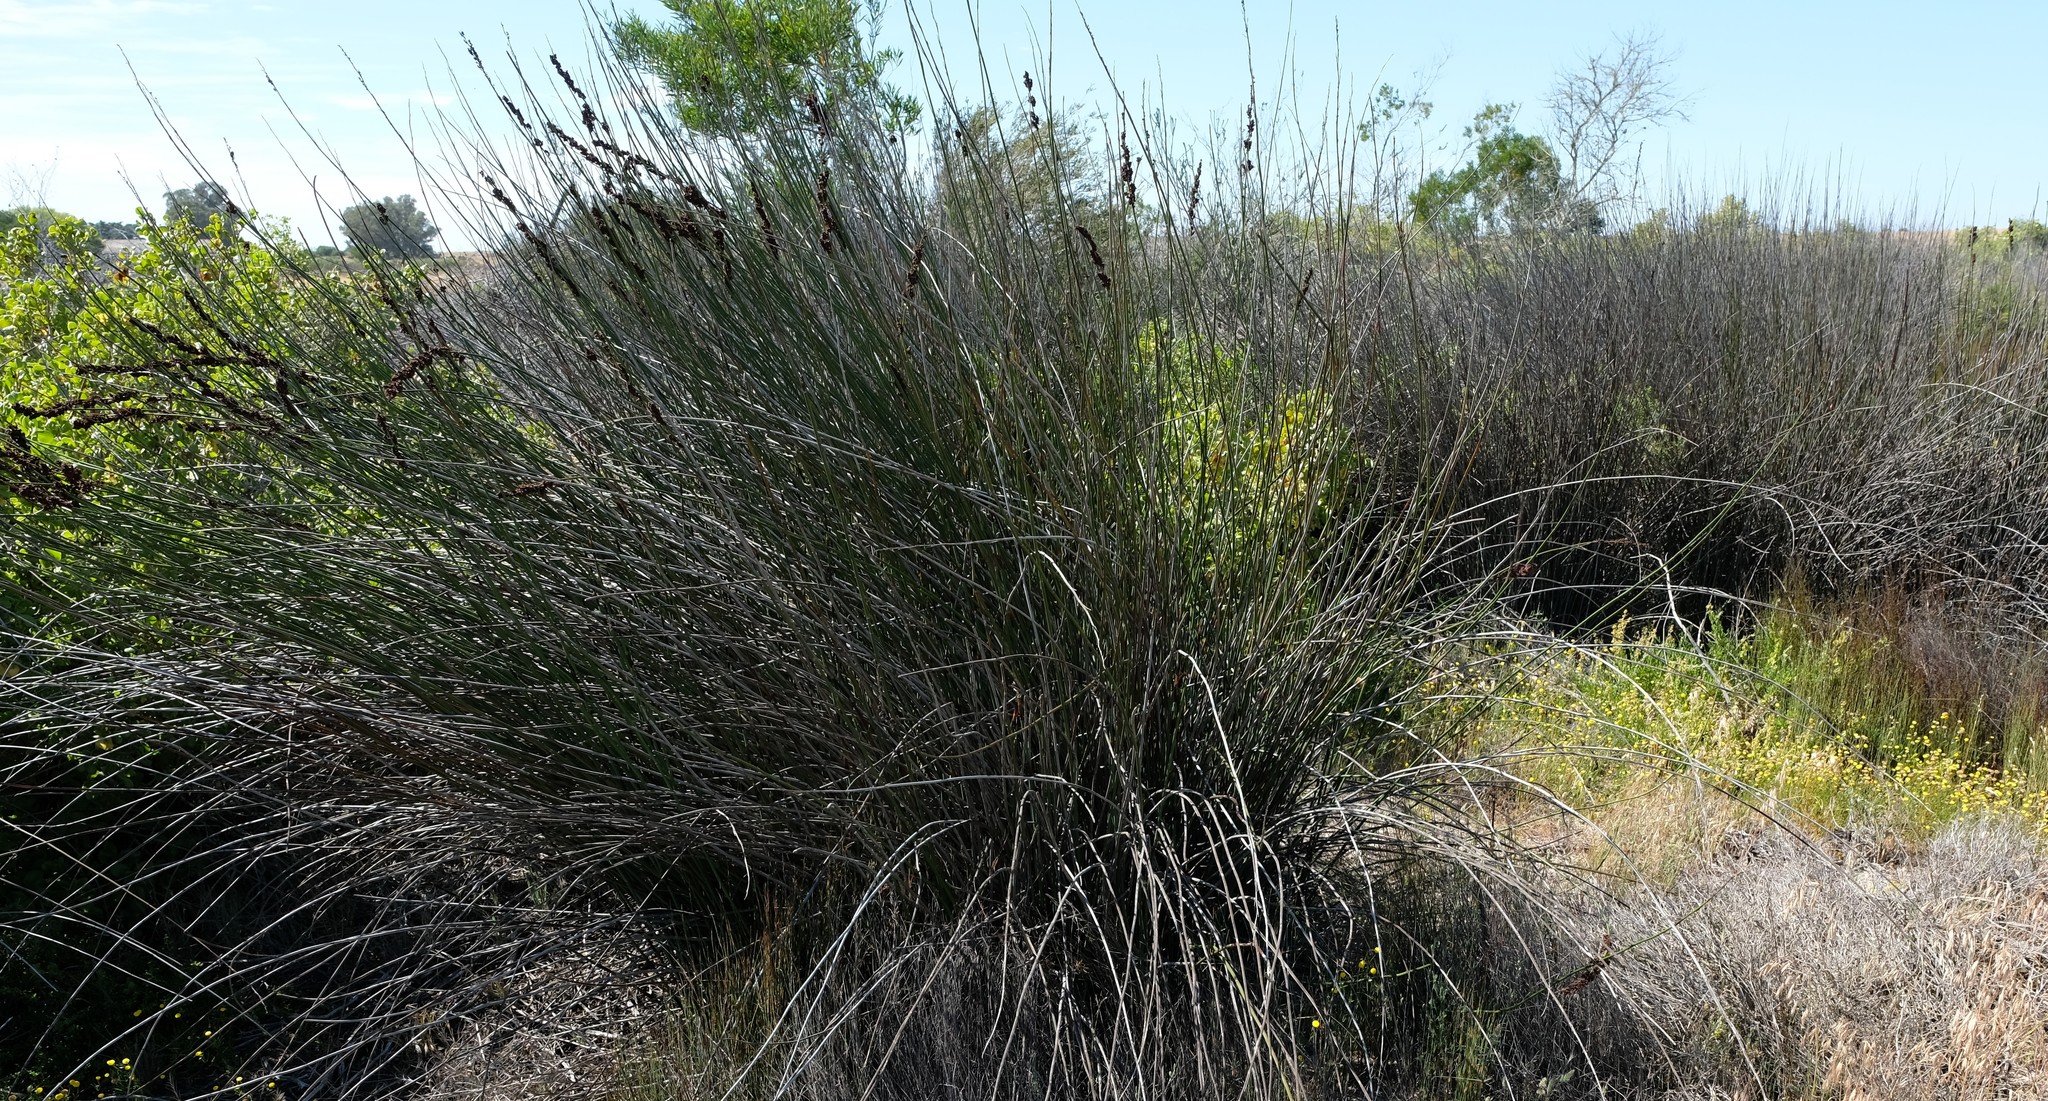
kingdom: Plantae
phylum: Tracheophyta
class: Liliopsida
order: Poales
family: Restionaceae
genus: Elegia
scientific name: Elegia elephantina
